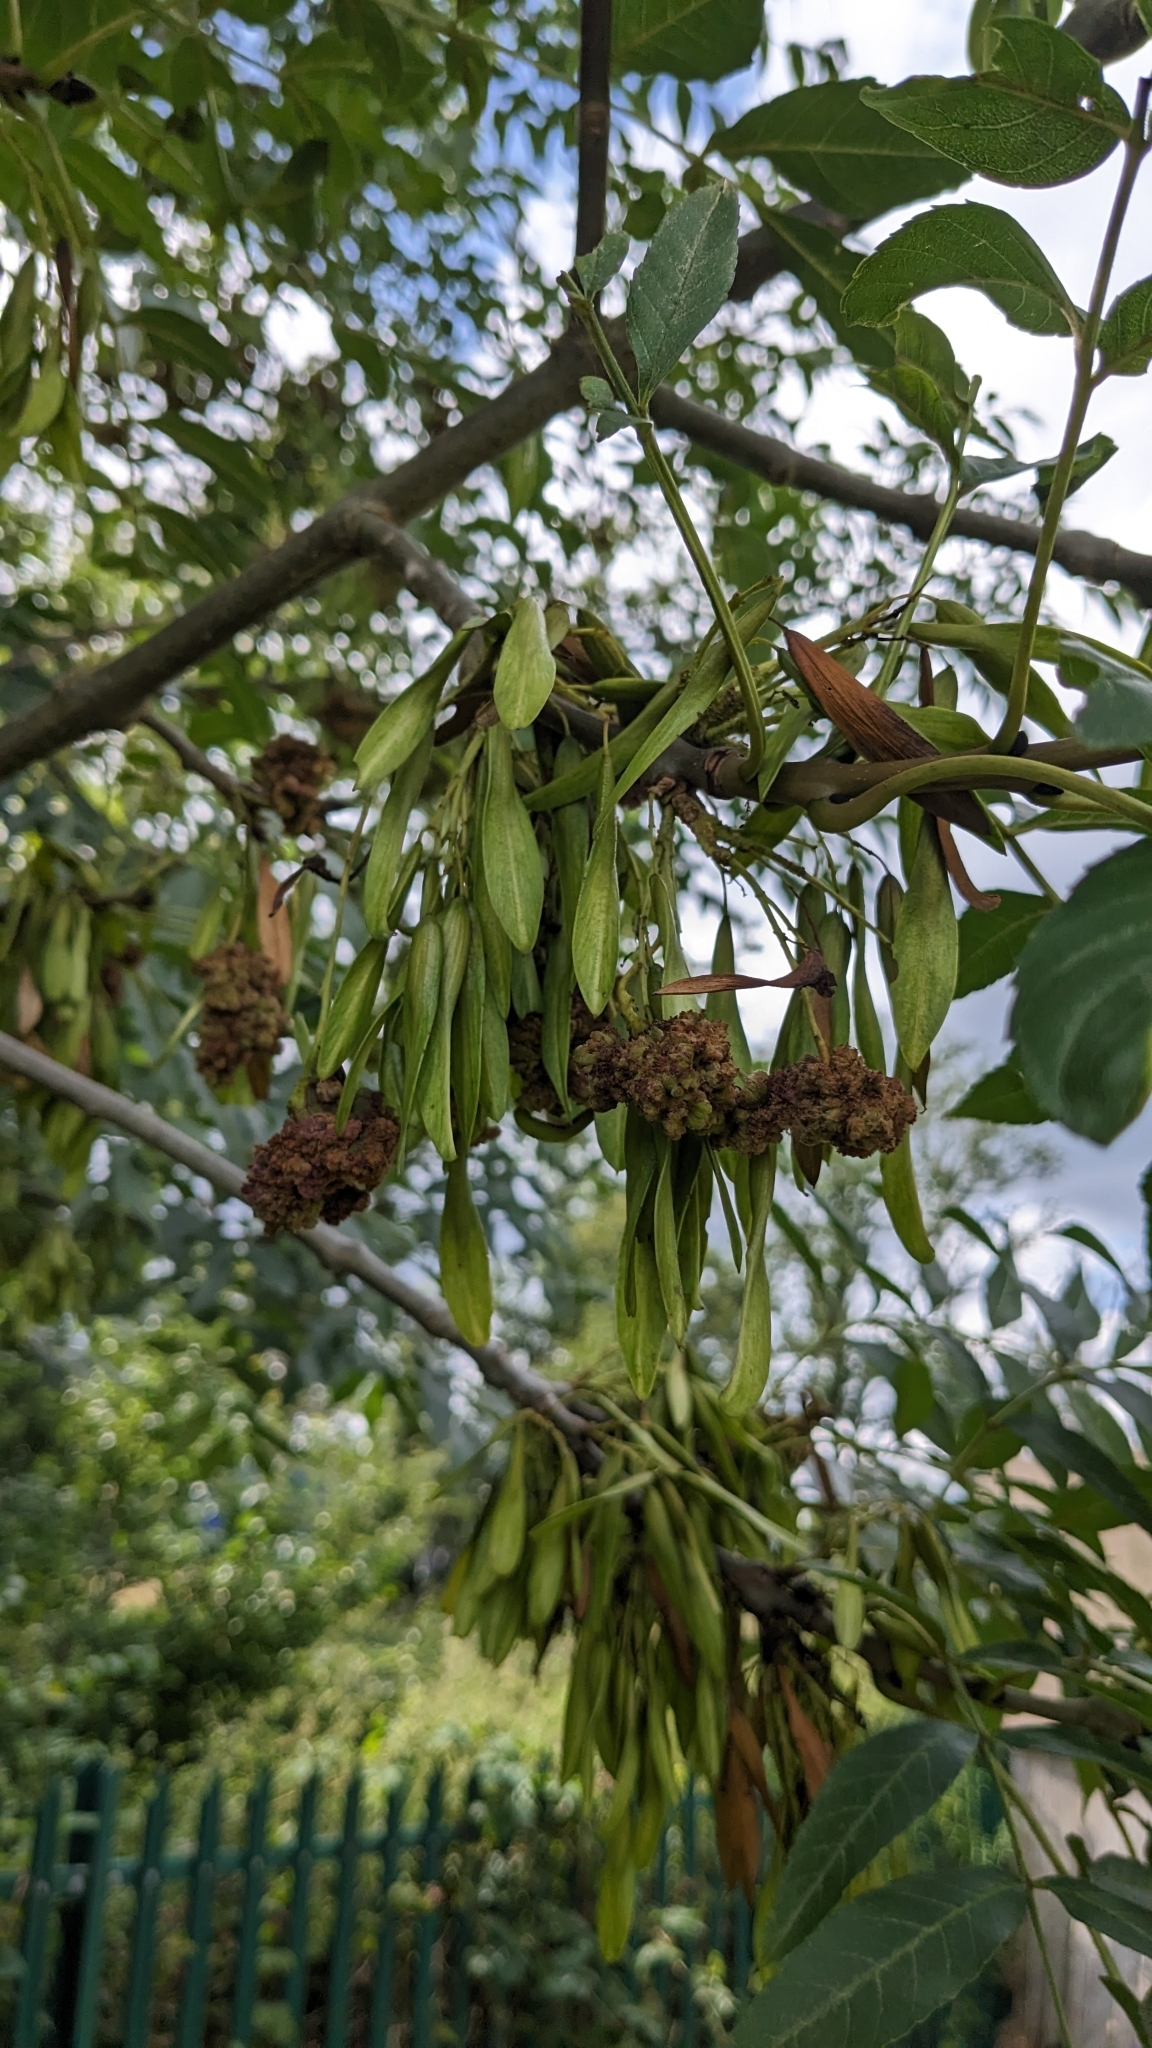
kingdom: Animalia
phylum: Arthropoda
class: Arachnida
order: Trombidiformes
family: Eriophyidae
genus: Aceria
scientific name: Aceria fraxinivora
